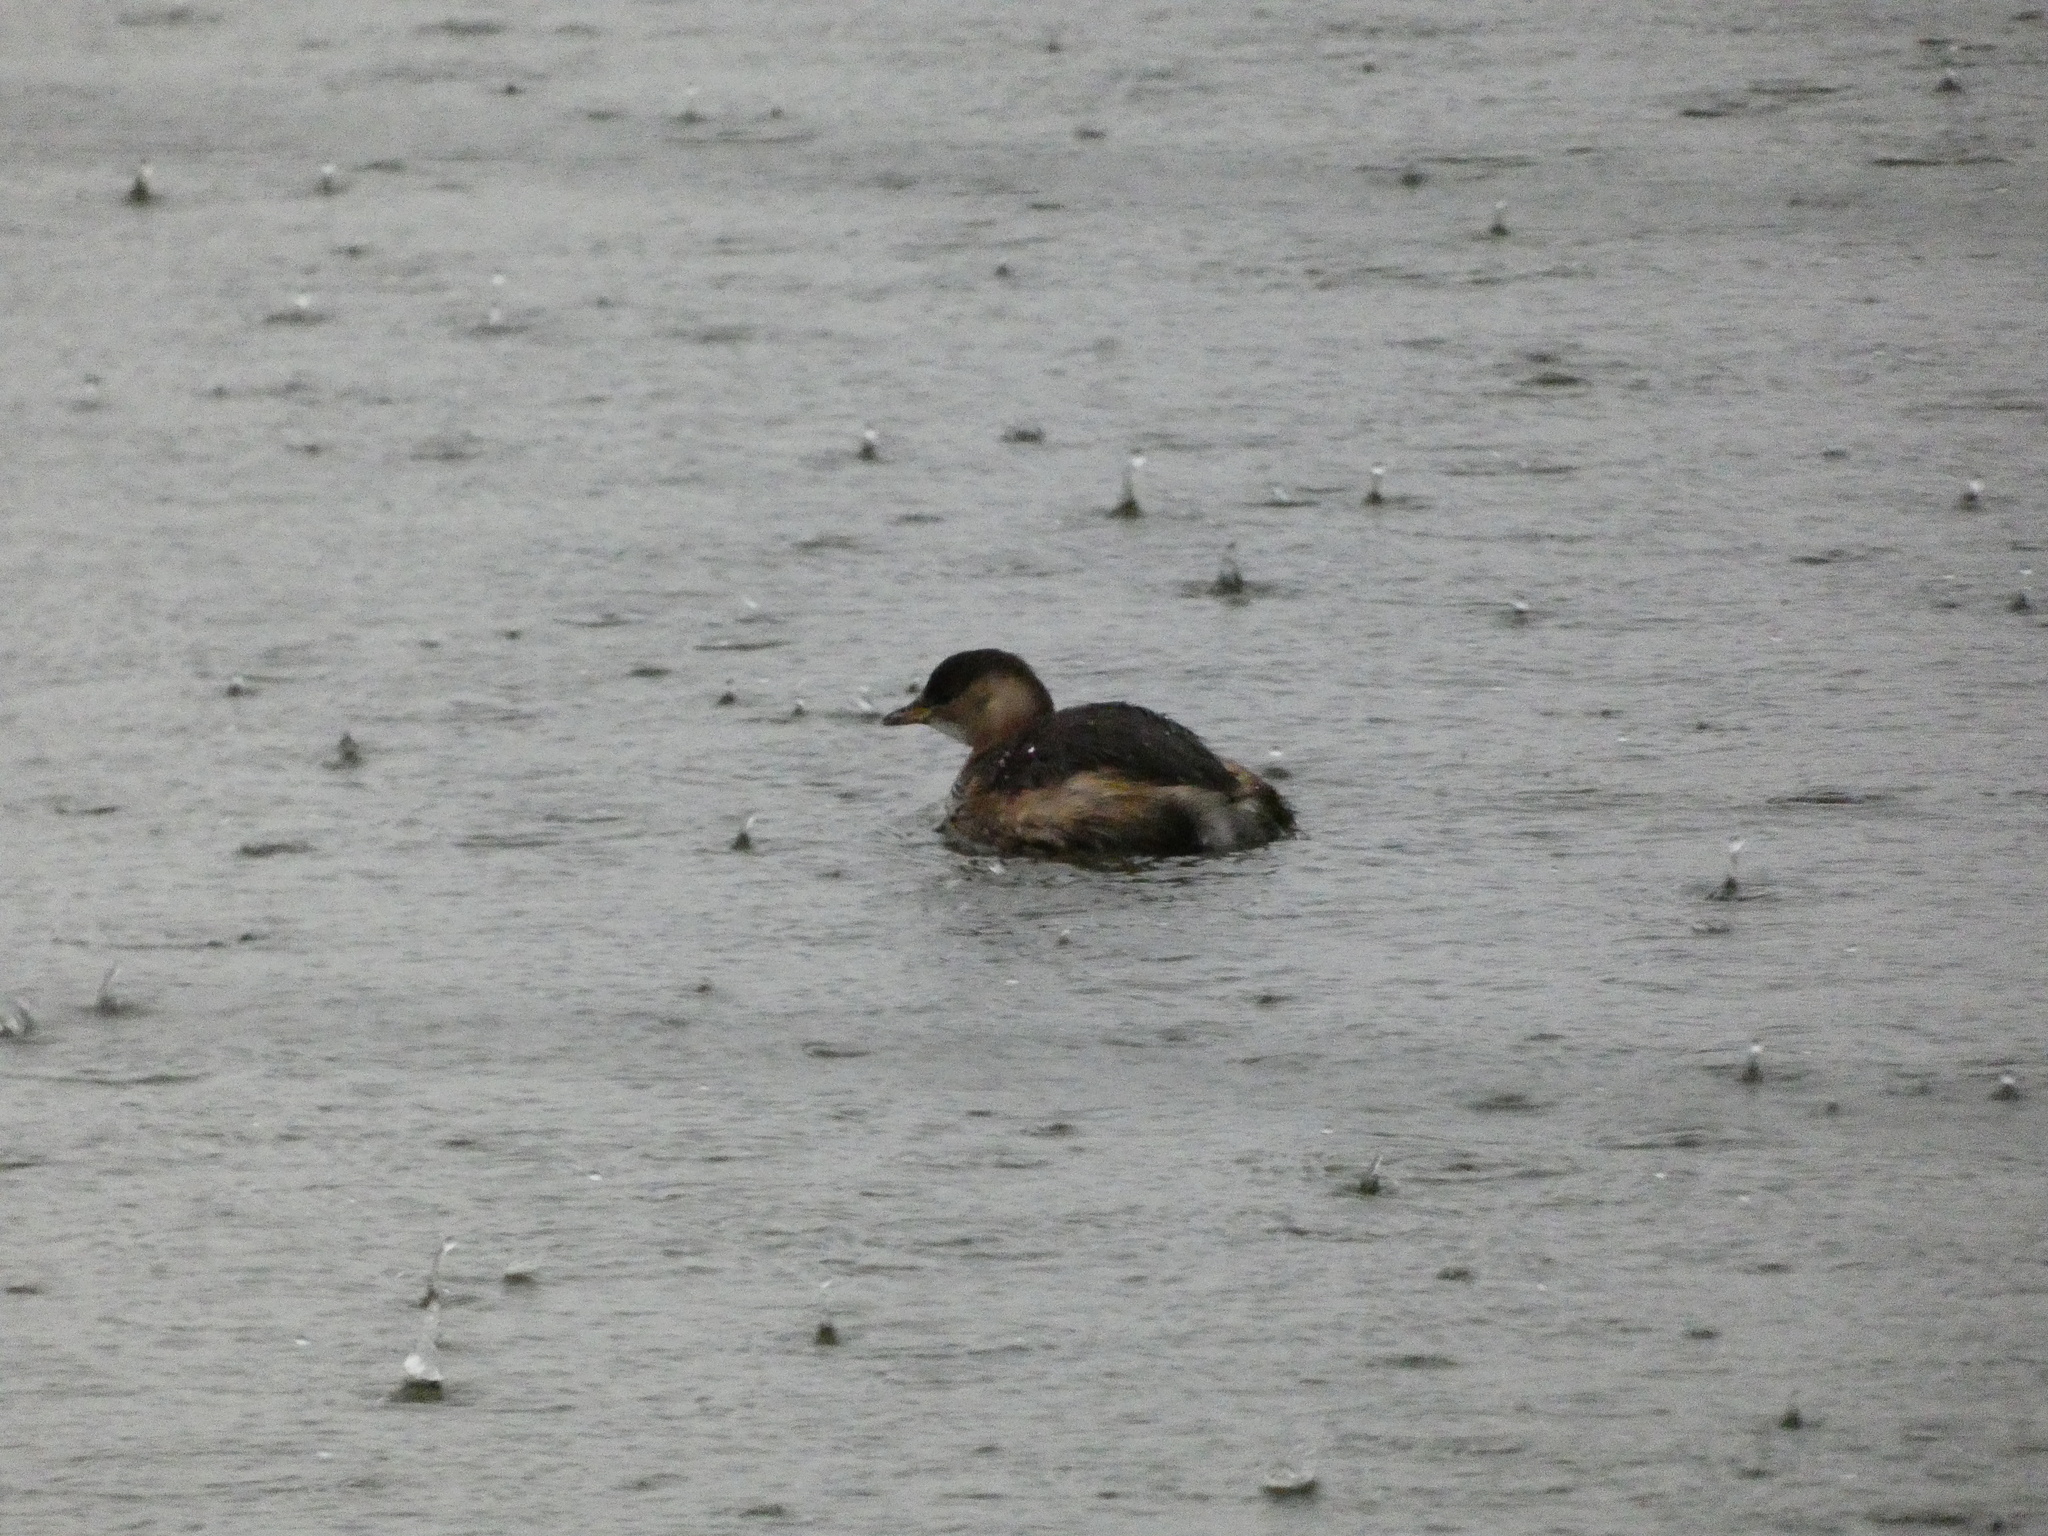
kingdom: Animalia
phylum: Chordata
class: Aves
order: Podicipediformes
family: Podicipedidae
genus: Tachybaptus
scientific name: Tachybaptus ruficollis
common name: Little grebe
